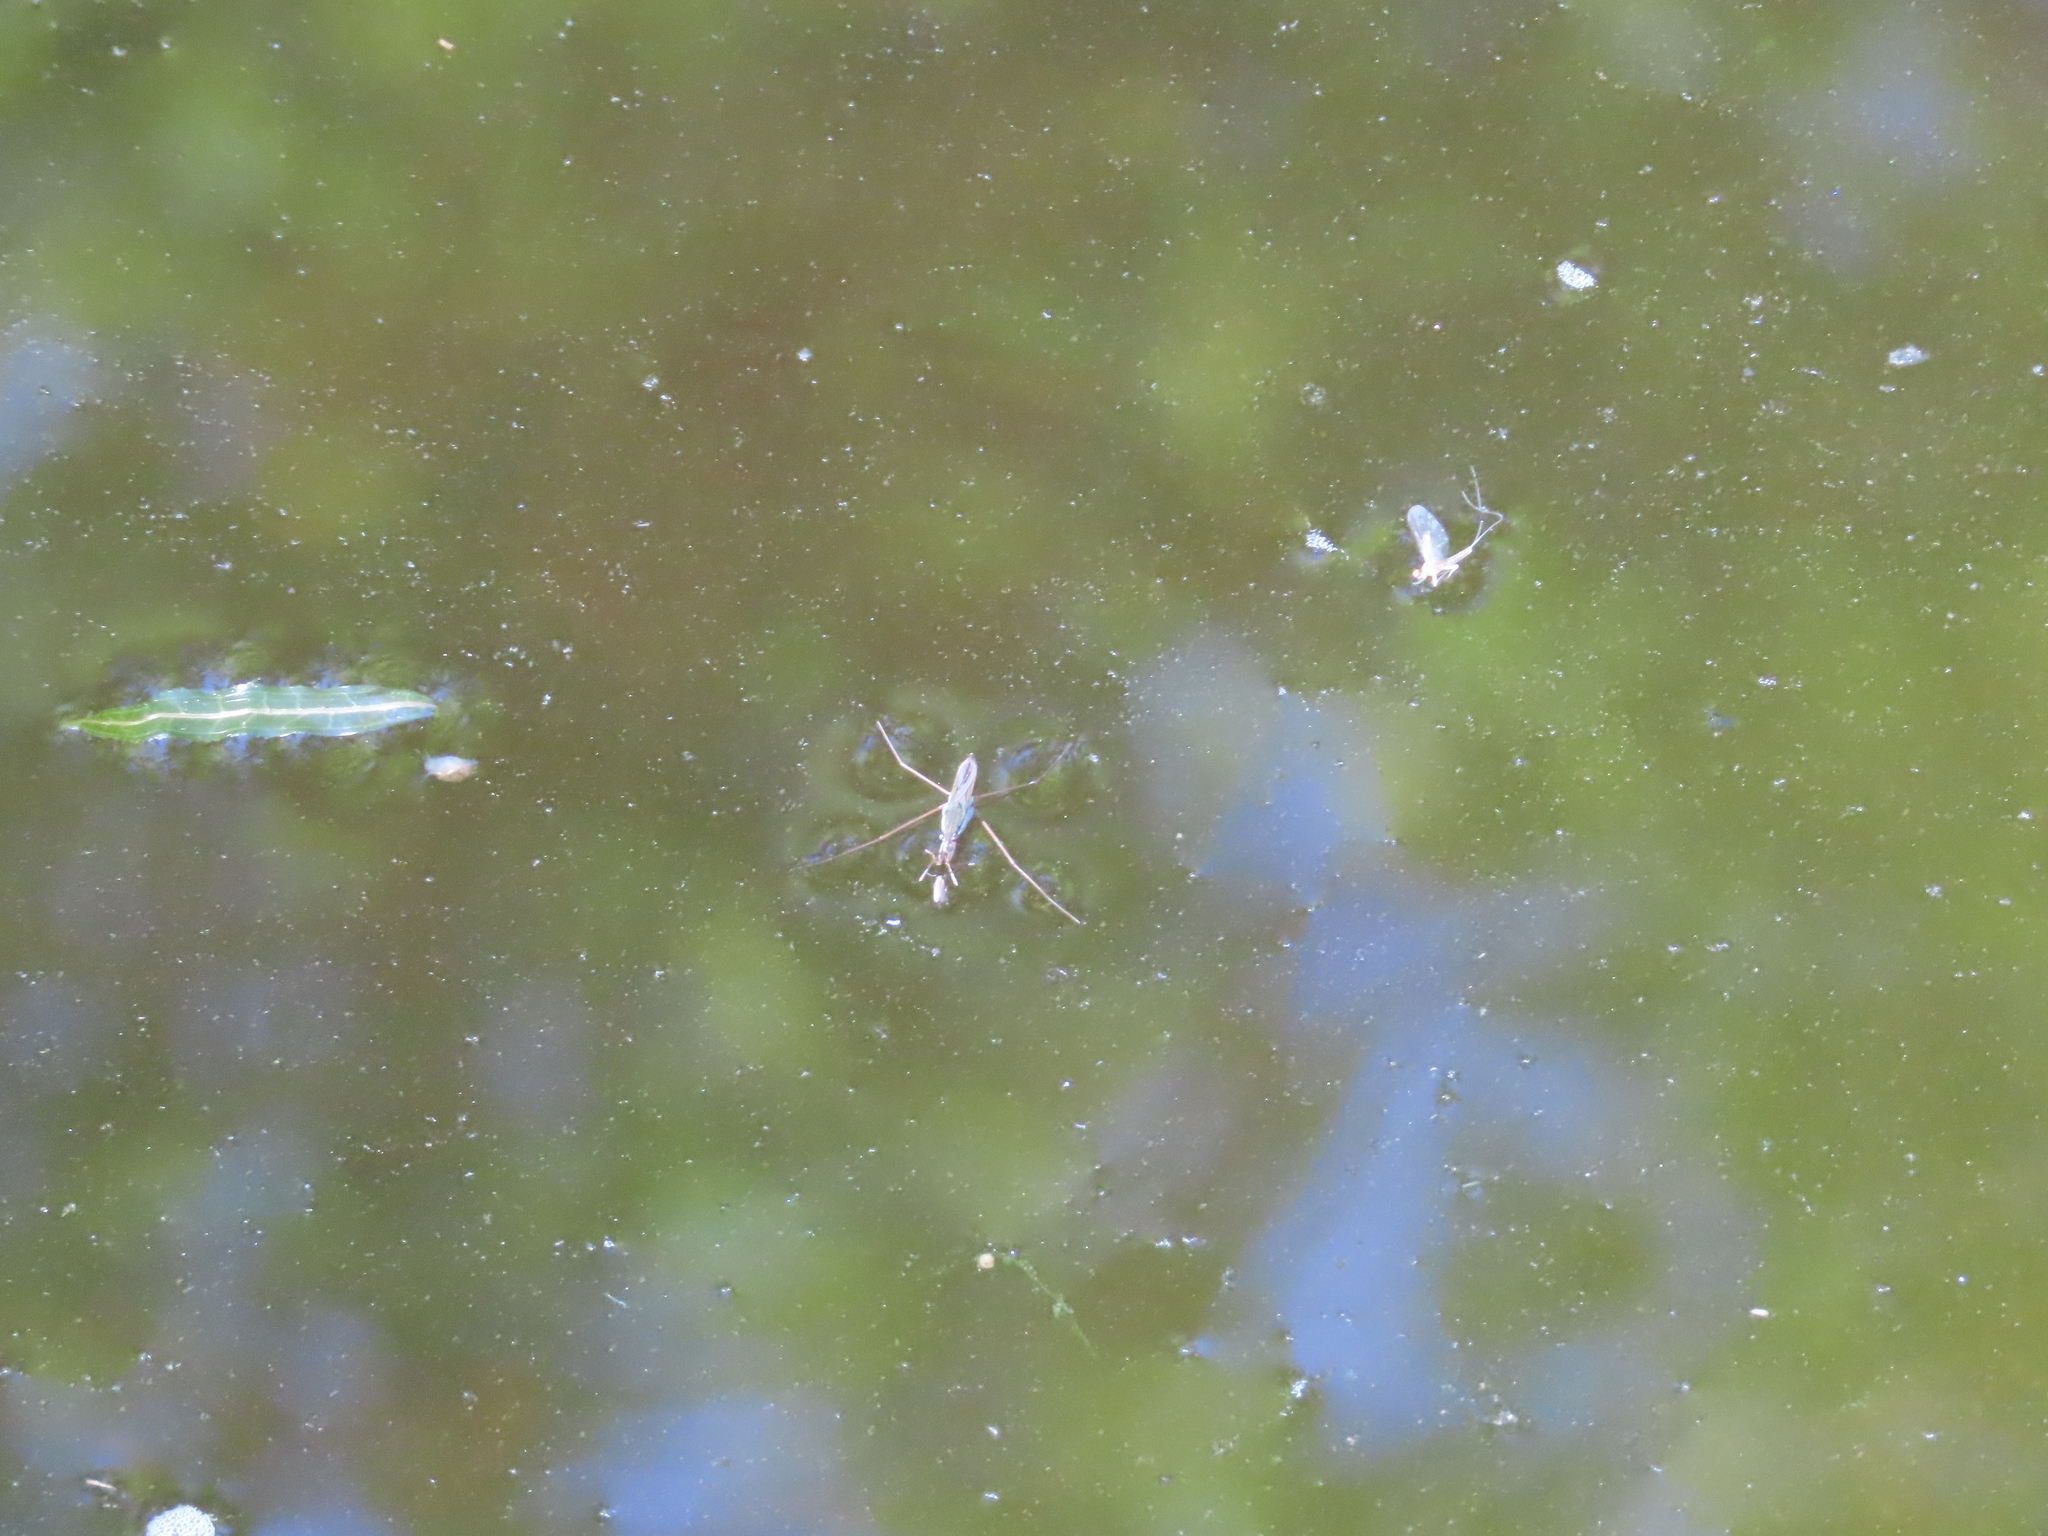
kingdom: Animalia
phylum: Arthropoda
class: Insecta
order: Hemiptera
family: Gerridae
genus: Gerris
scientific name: Gerris
